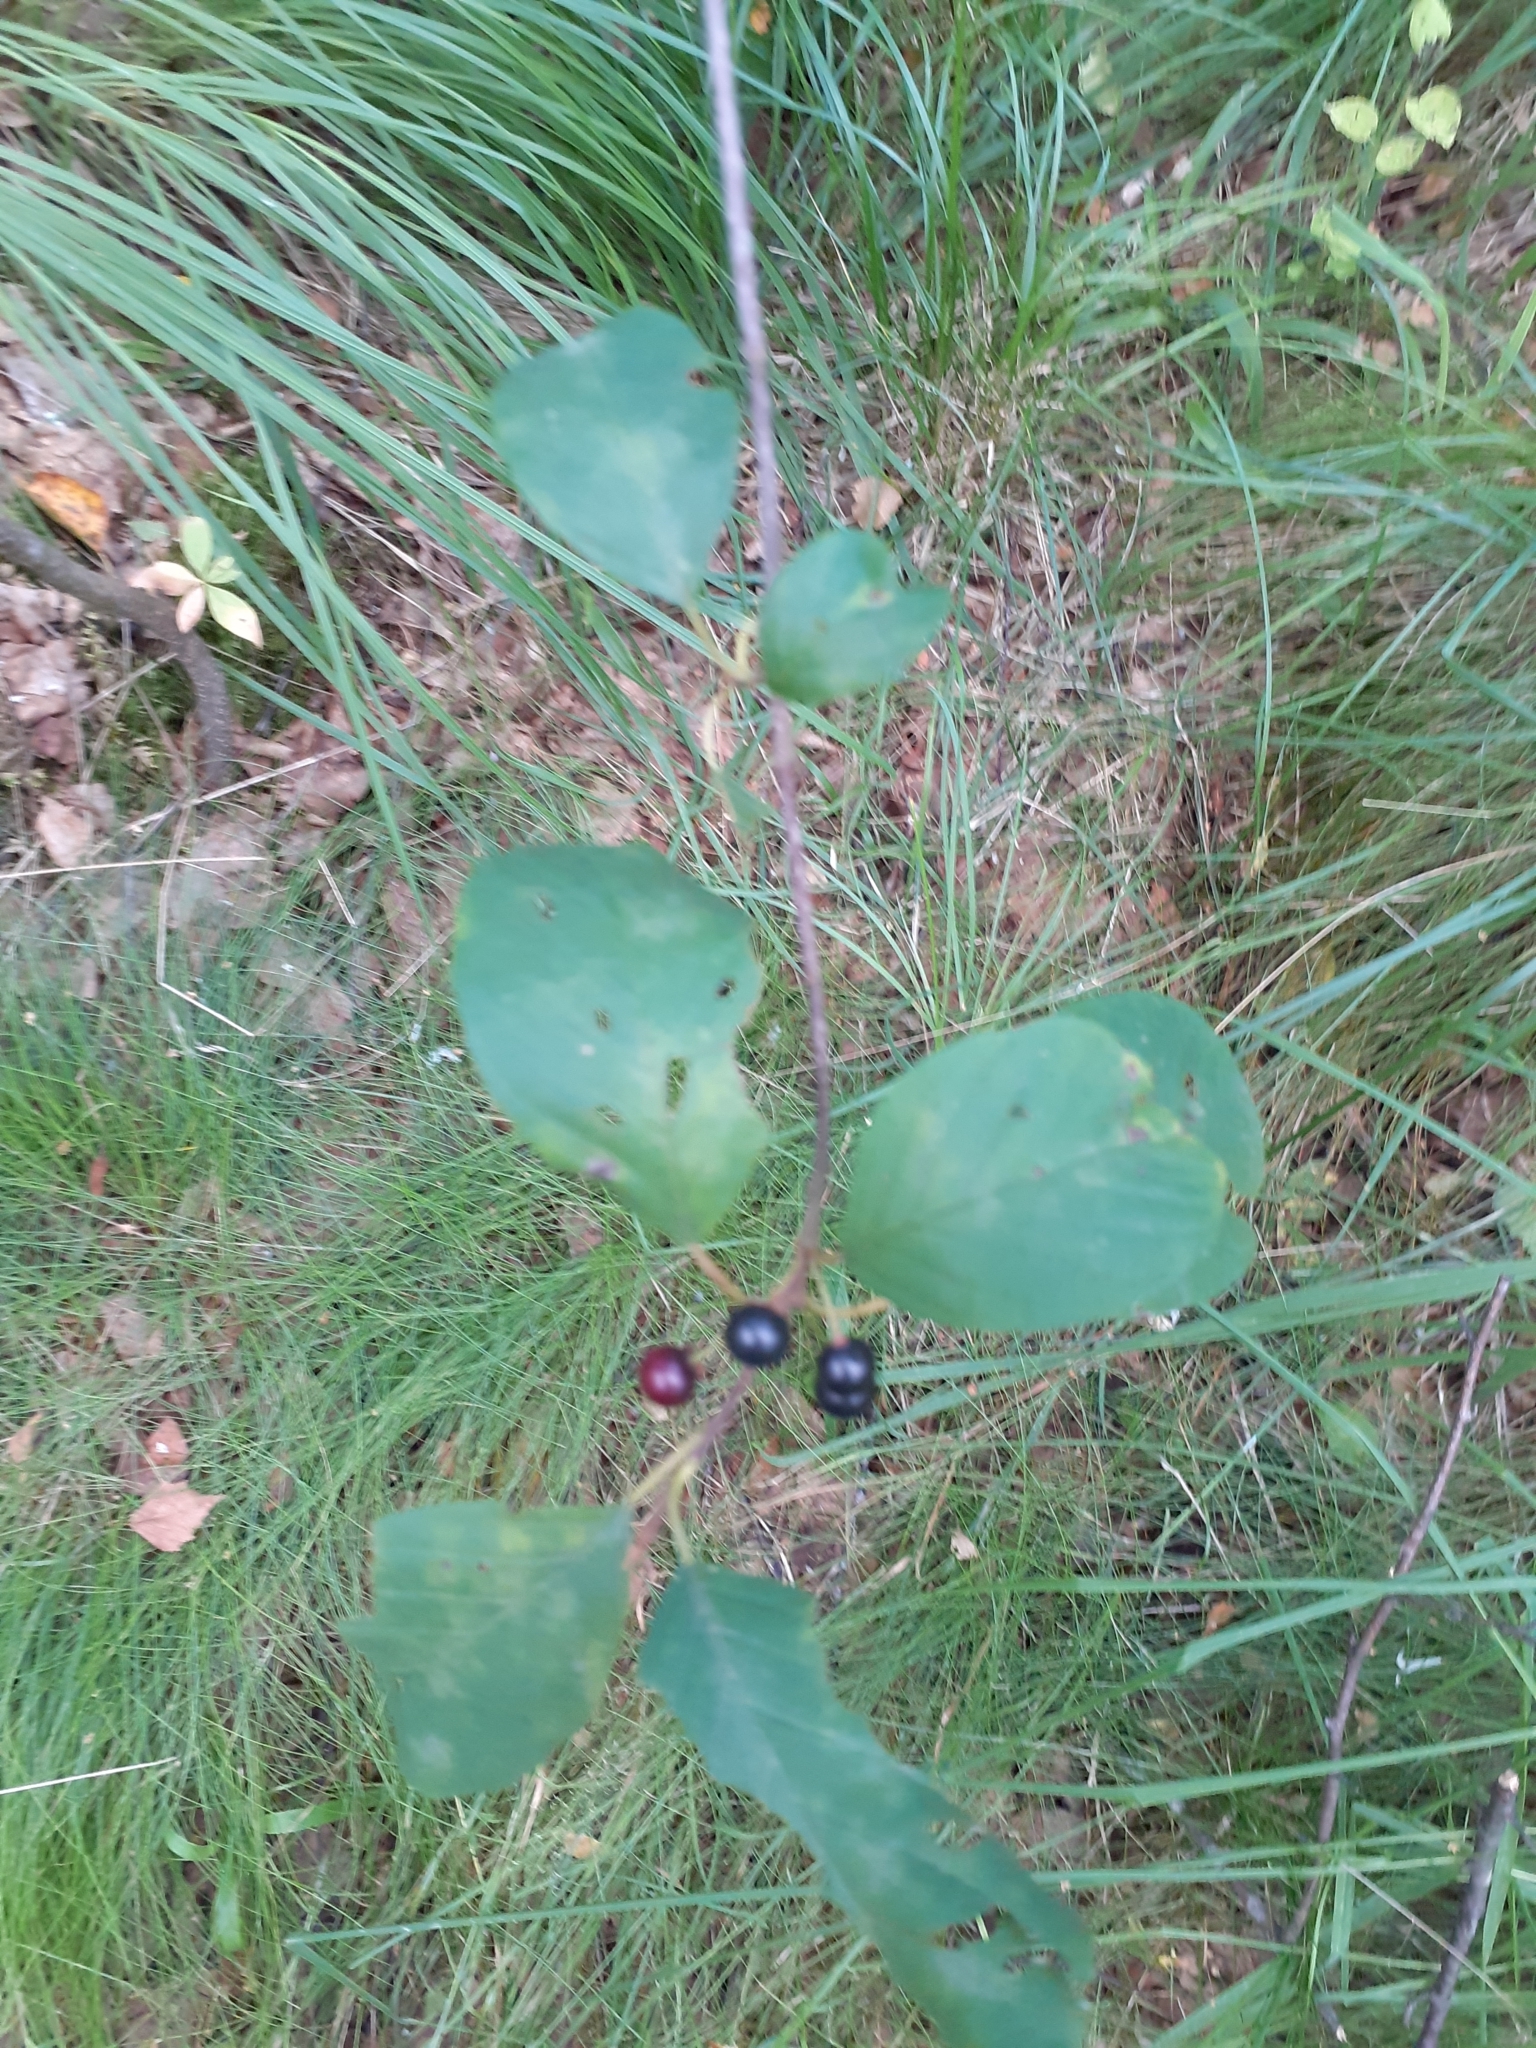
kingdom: Plantae
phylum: Tracheophyta
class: Magnoliopsida
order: Rosales
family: Rhamnaceae
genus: Frangula
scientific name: Frangula alnus
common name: Alder buckthorn
